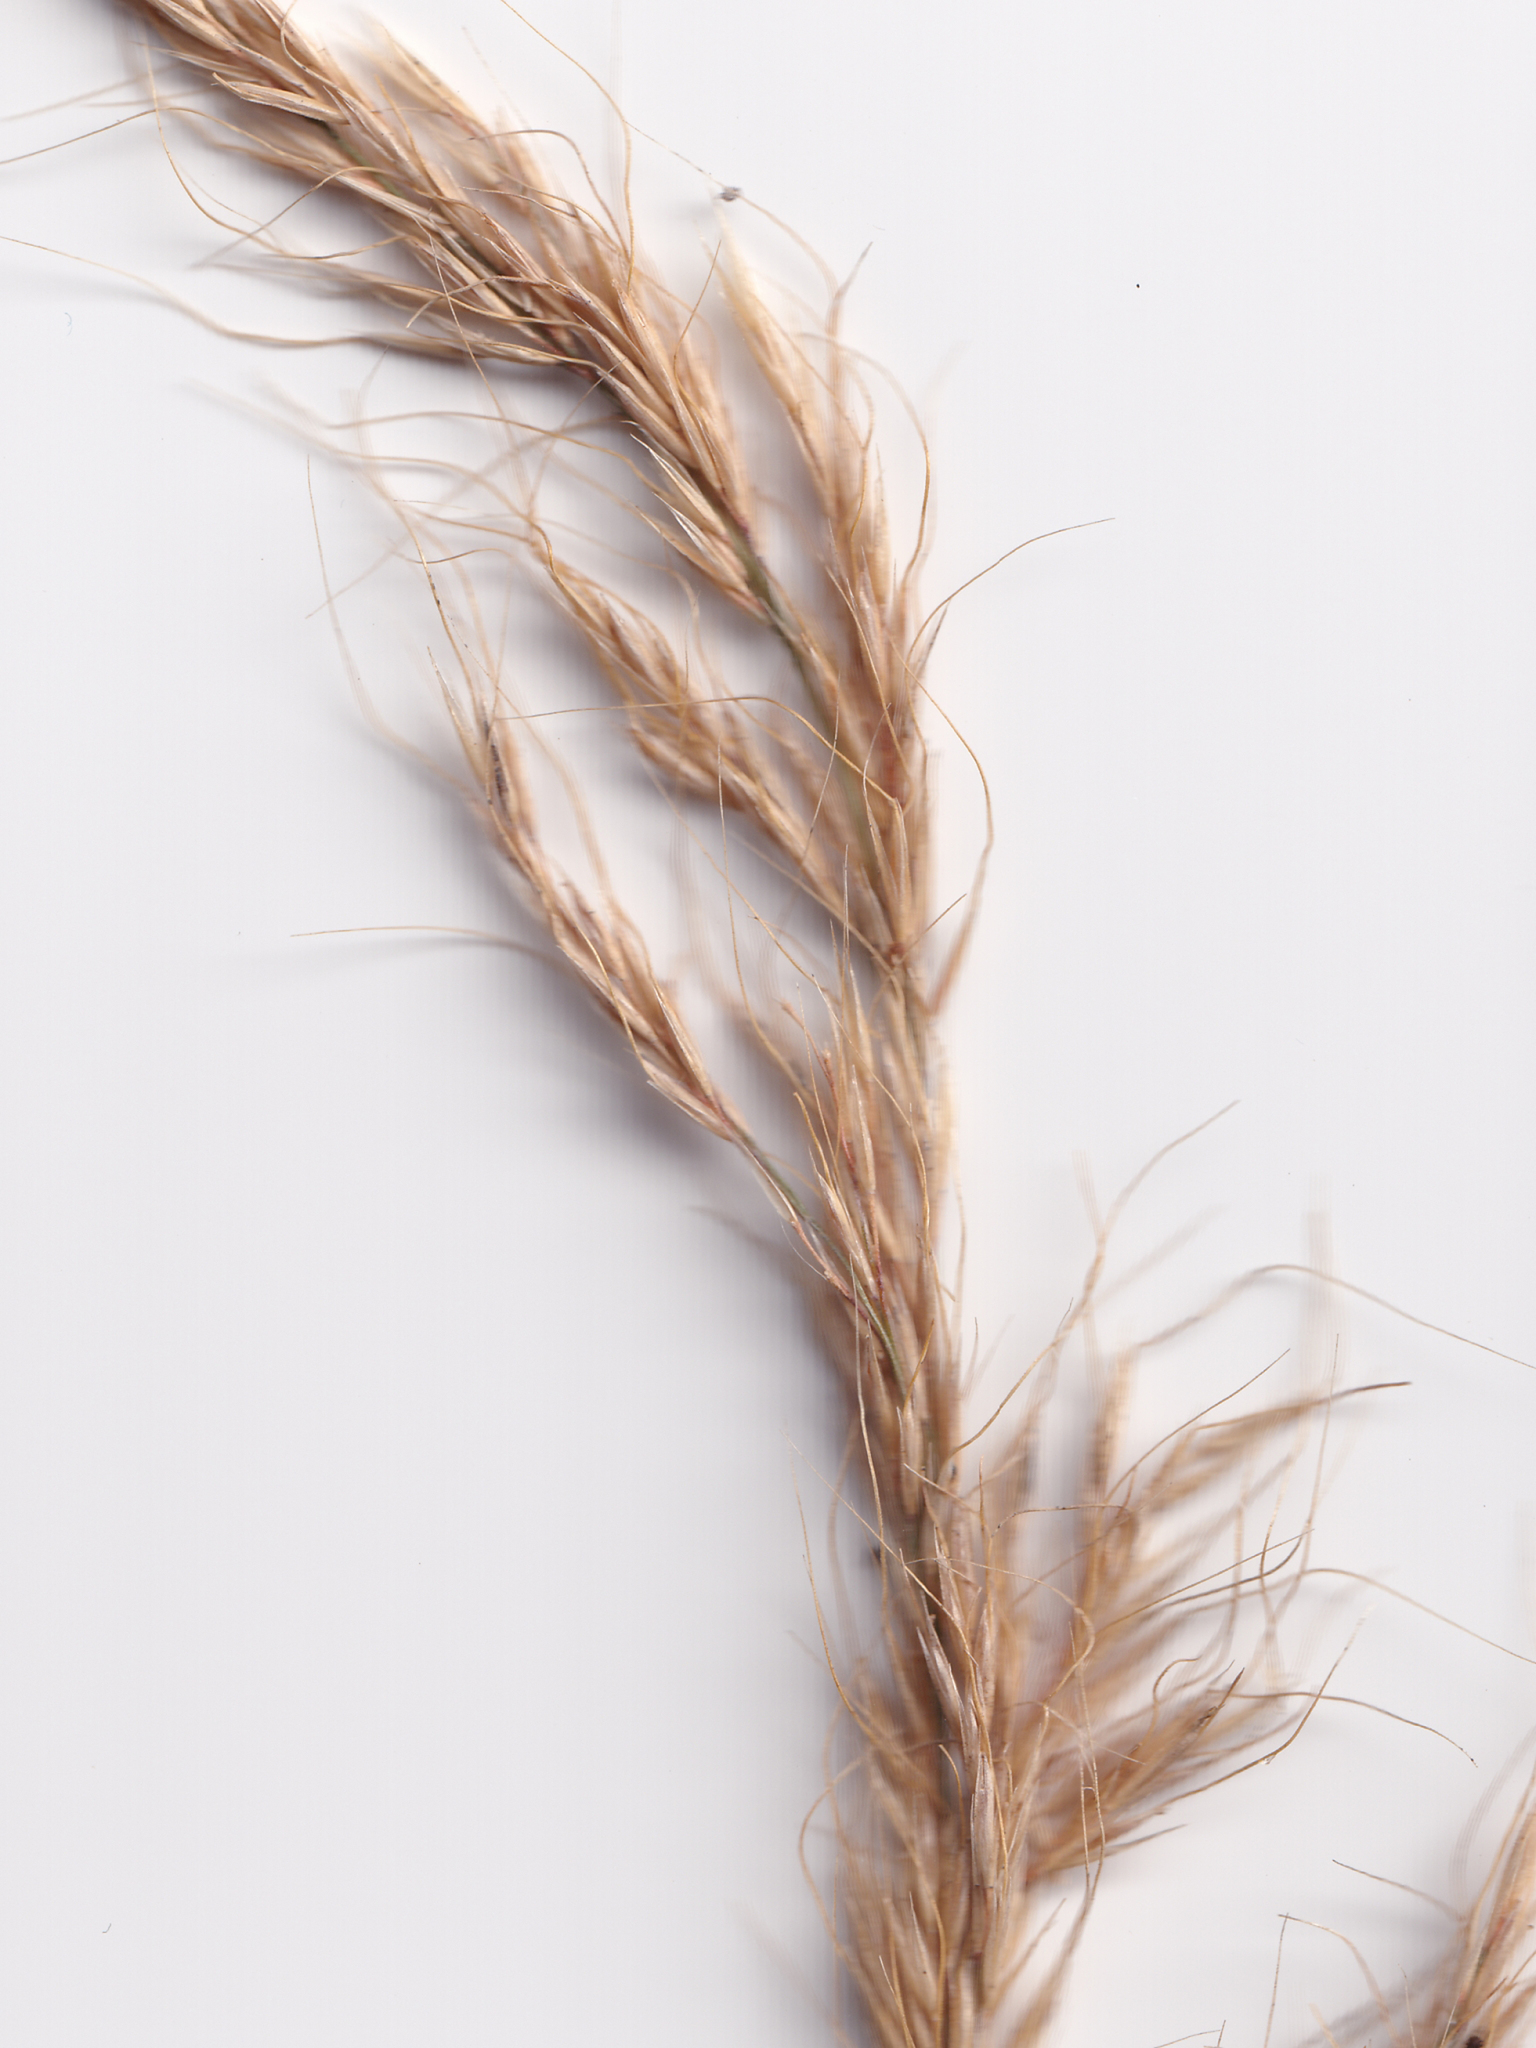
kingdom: Plantae
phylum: Tracheophyta
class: Liliopsida
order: Poales
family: Poaceae
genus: Dichelachne
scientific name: Dichelachne micrantha
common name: Plumegrass
